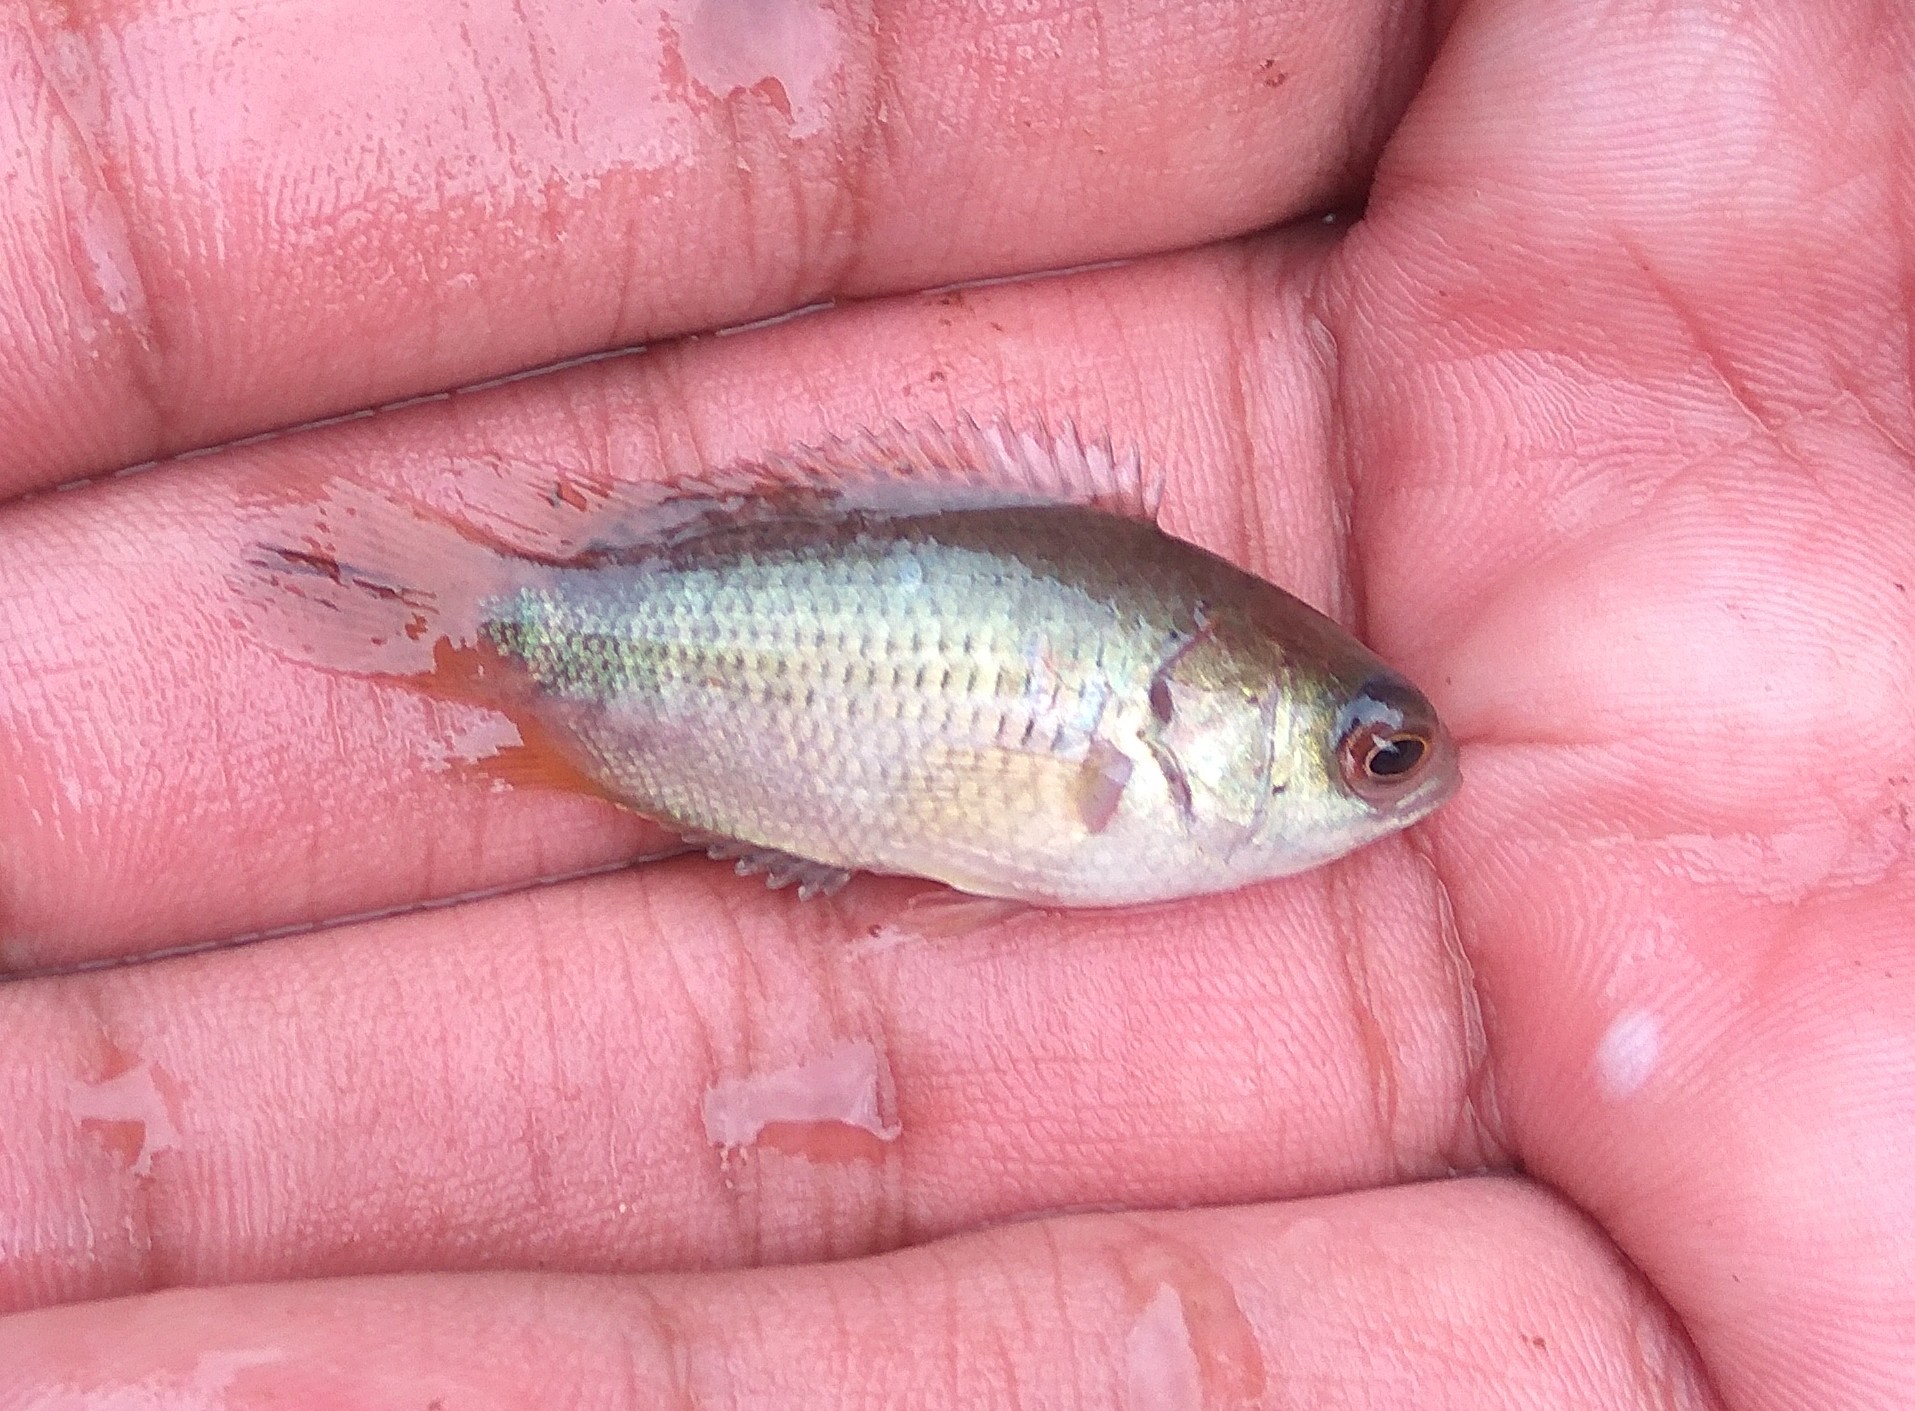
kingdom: Animalia
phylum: Chordata
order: Perciformes
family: Anabantidae
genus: Anabas
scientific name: Anabas testudineus
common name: Climbing perch
